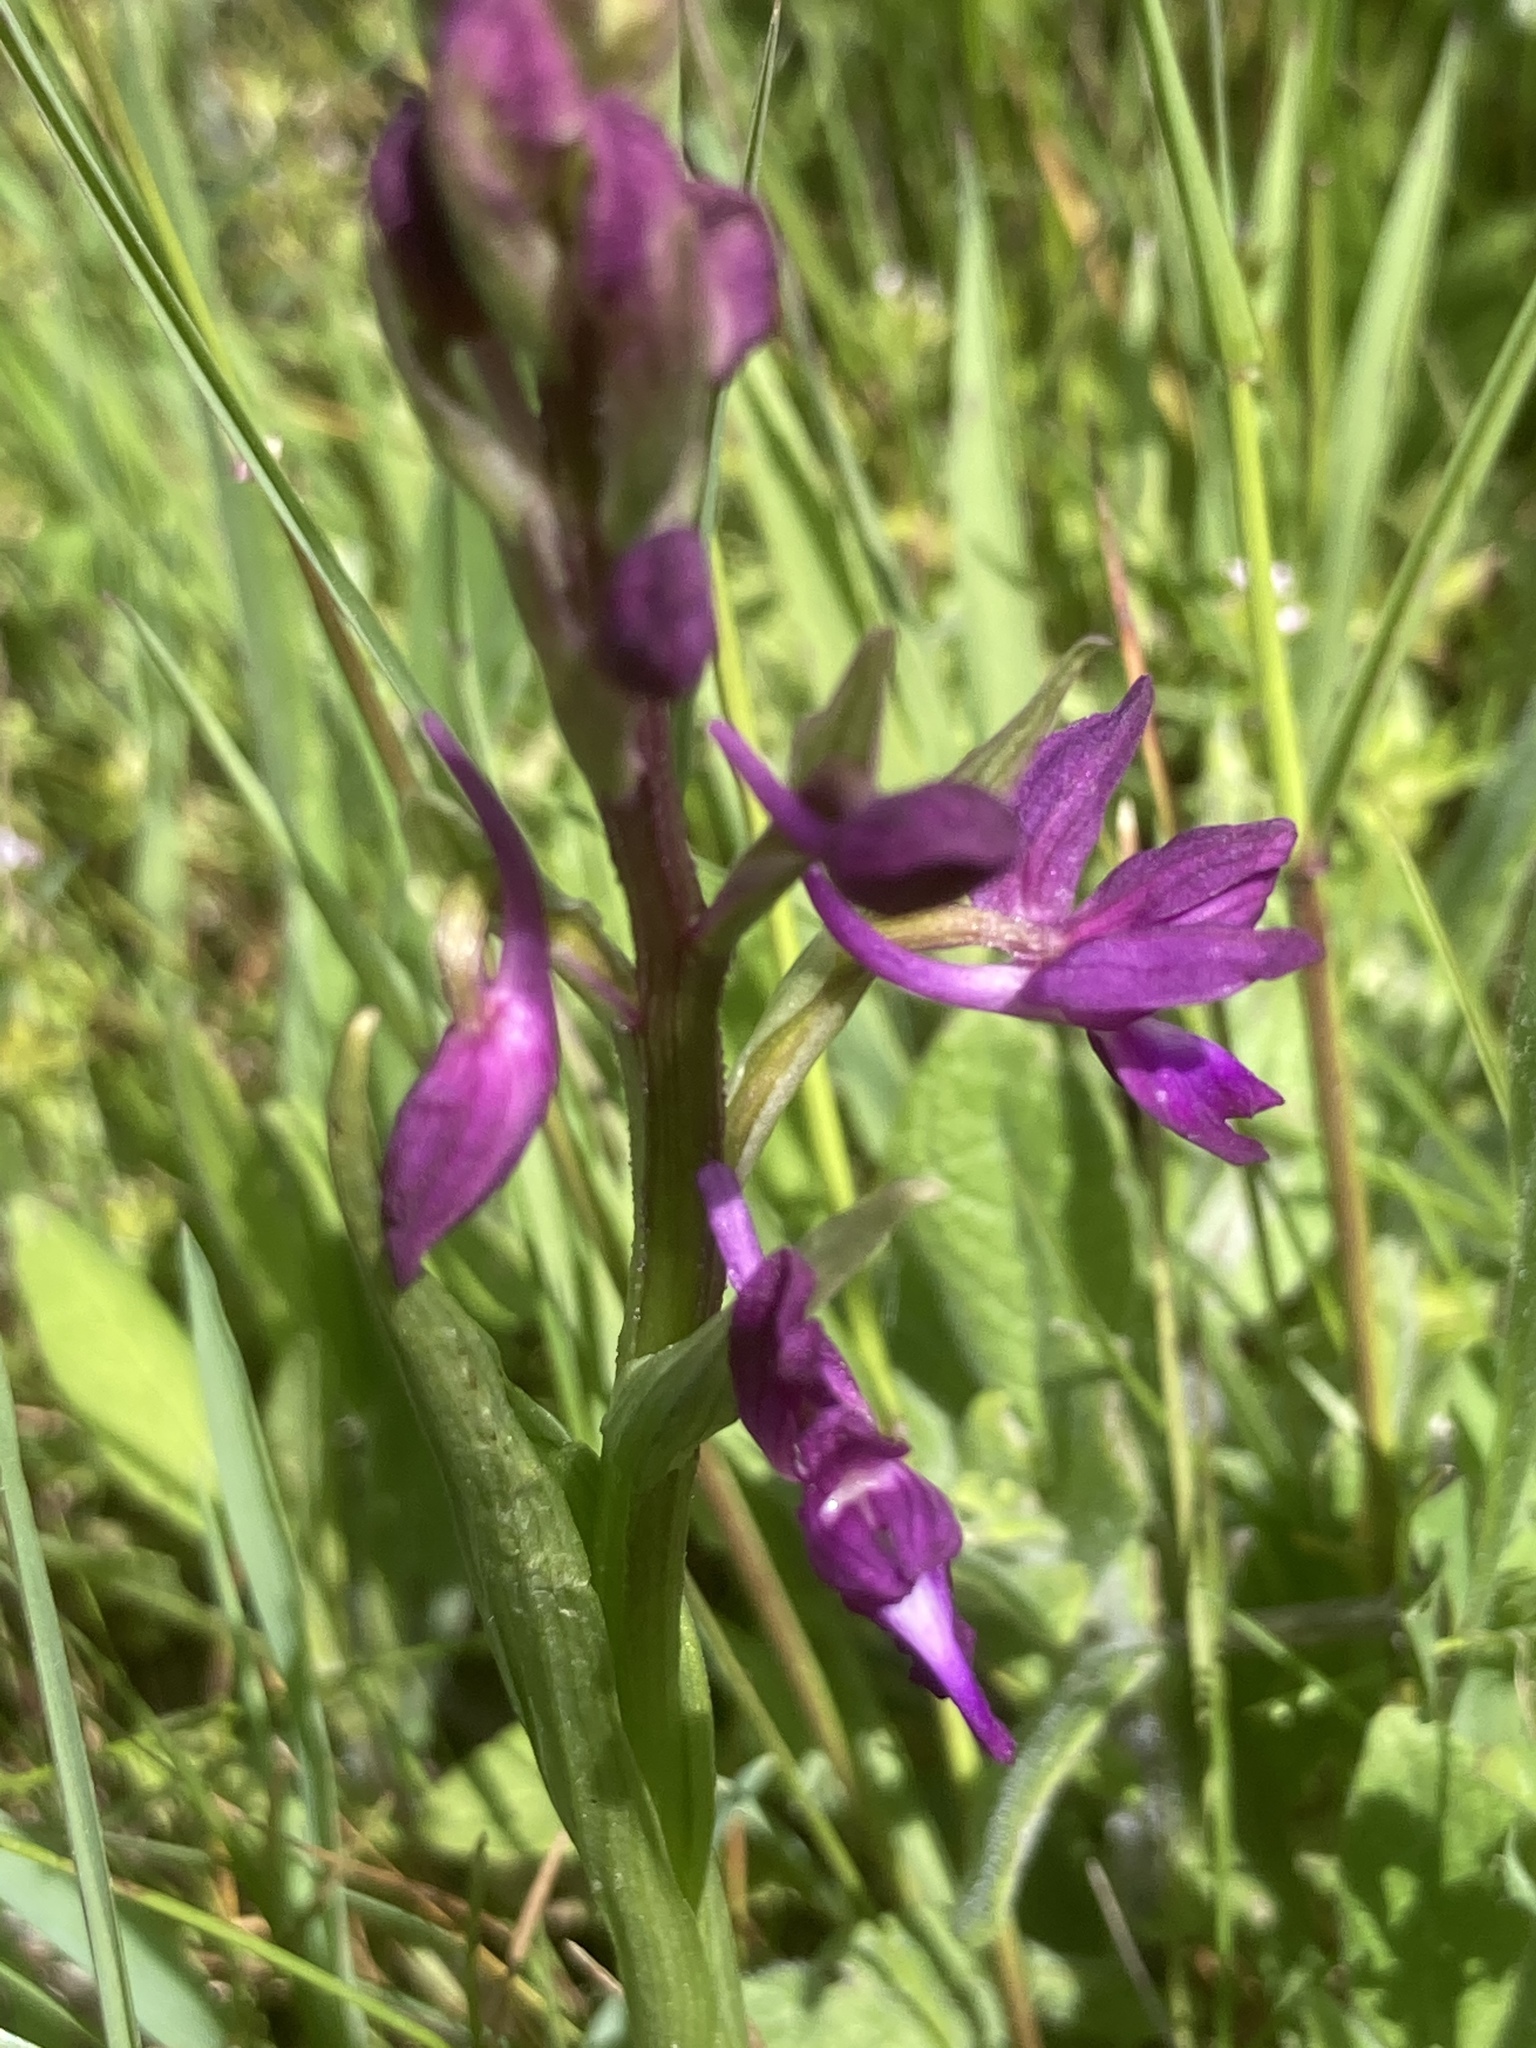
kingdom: Plantae
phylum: Tracheophyta
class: Liliopsida
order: Asparagales
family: Orchidaceae
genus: Anacamptis
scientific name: Anacamptis laxiflora
